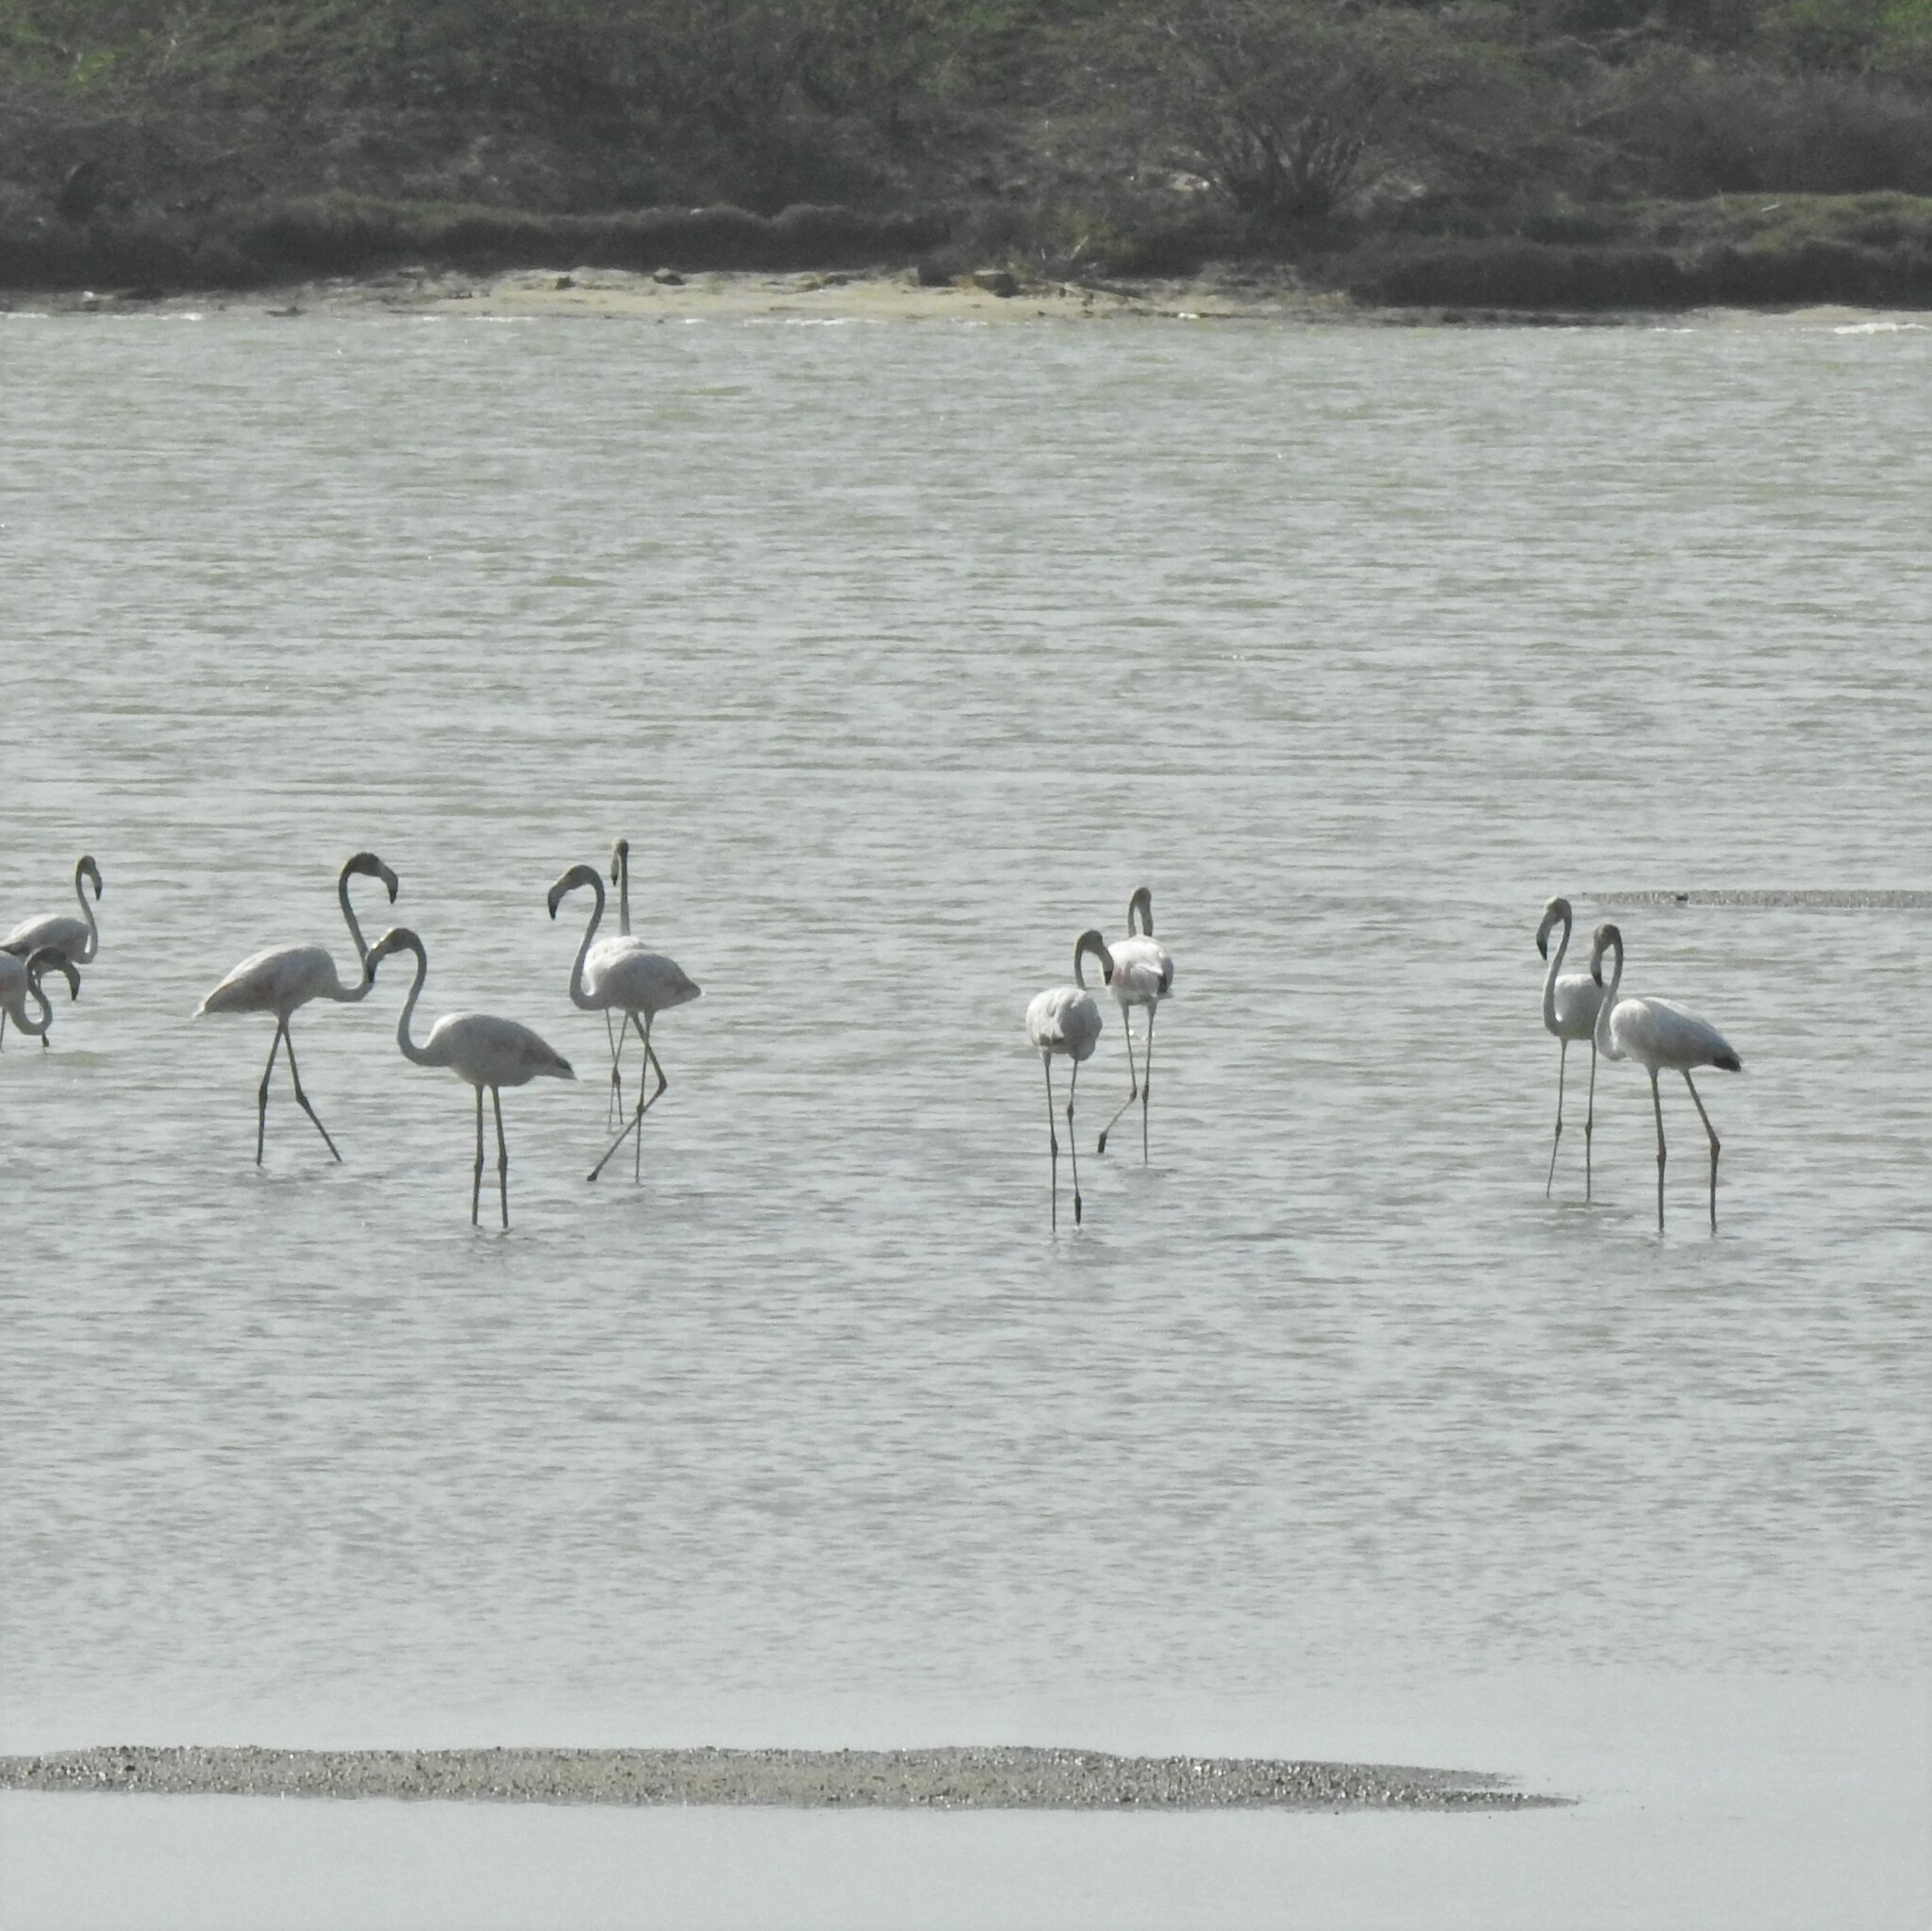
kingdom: Animalia
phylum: Chordata
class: Aves
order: Phoenicopteriformes
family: Phoenicopteridae
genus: Phoenicopterus
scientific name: Phoenicopterus roseus
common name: Greater flamingo
